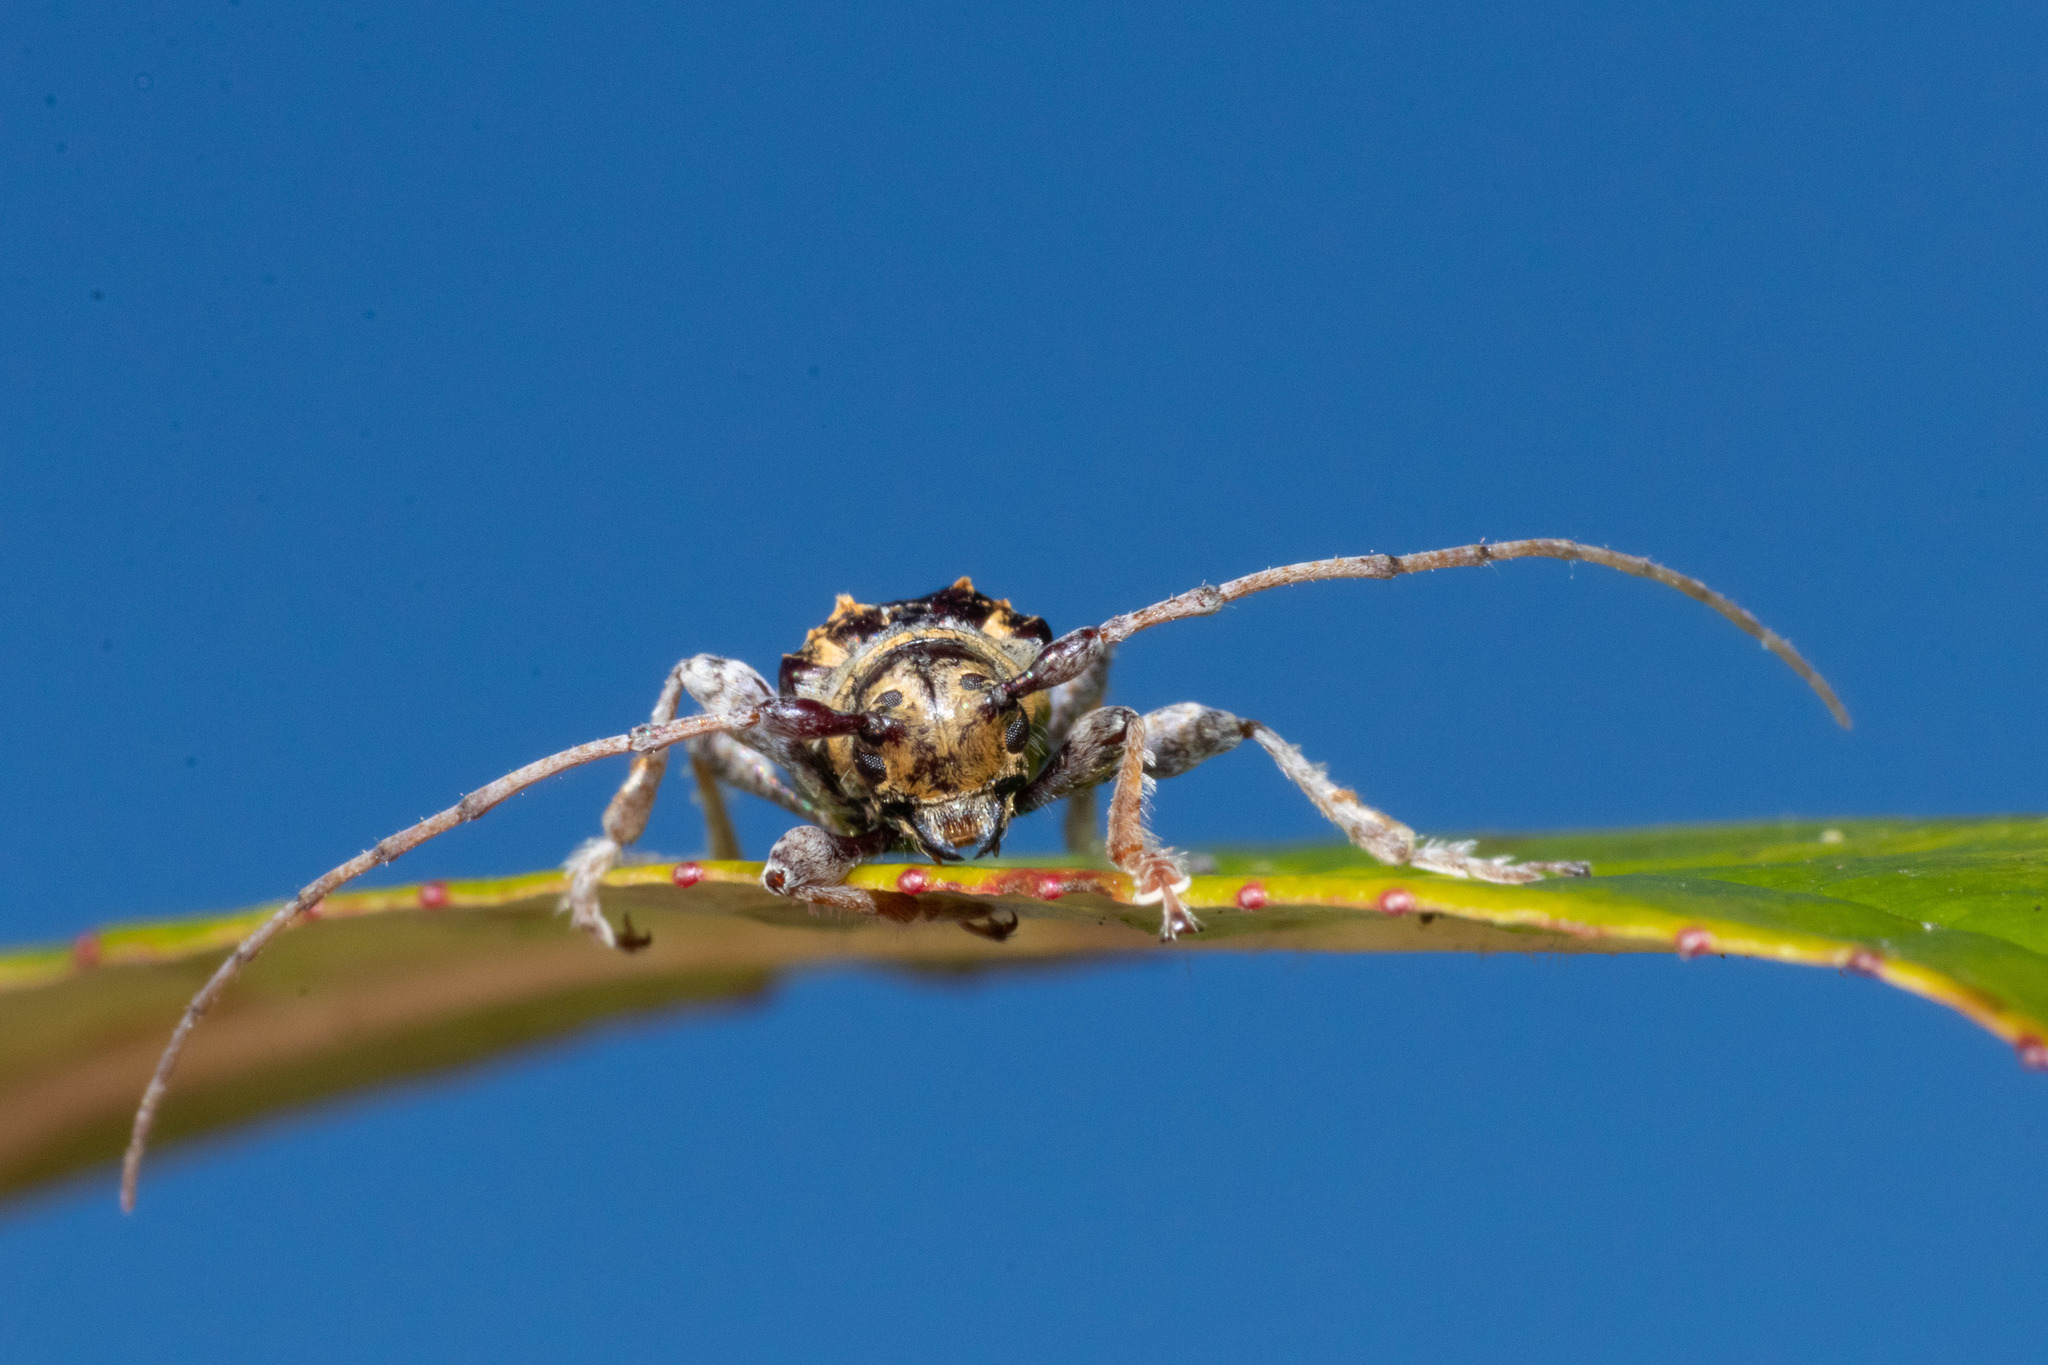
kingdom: Animalia
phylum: Arthropoda
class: Insecta
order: Coleoptera
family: Cerambycidae
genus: Tetrorea
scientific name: Tetrorea cilipes
